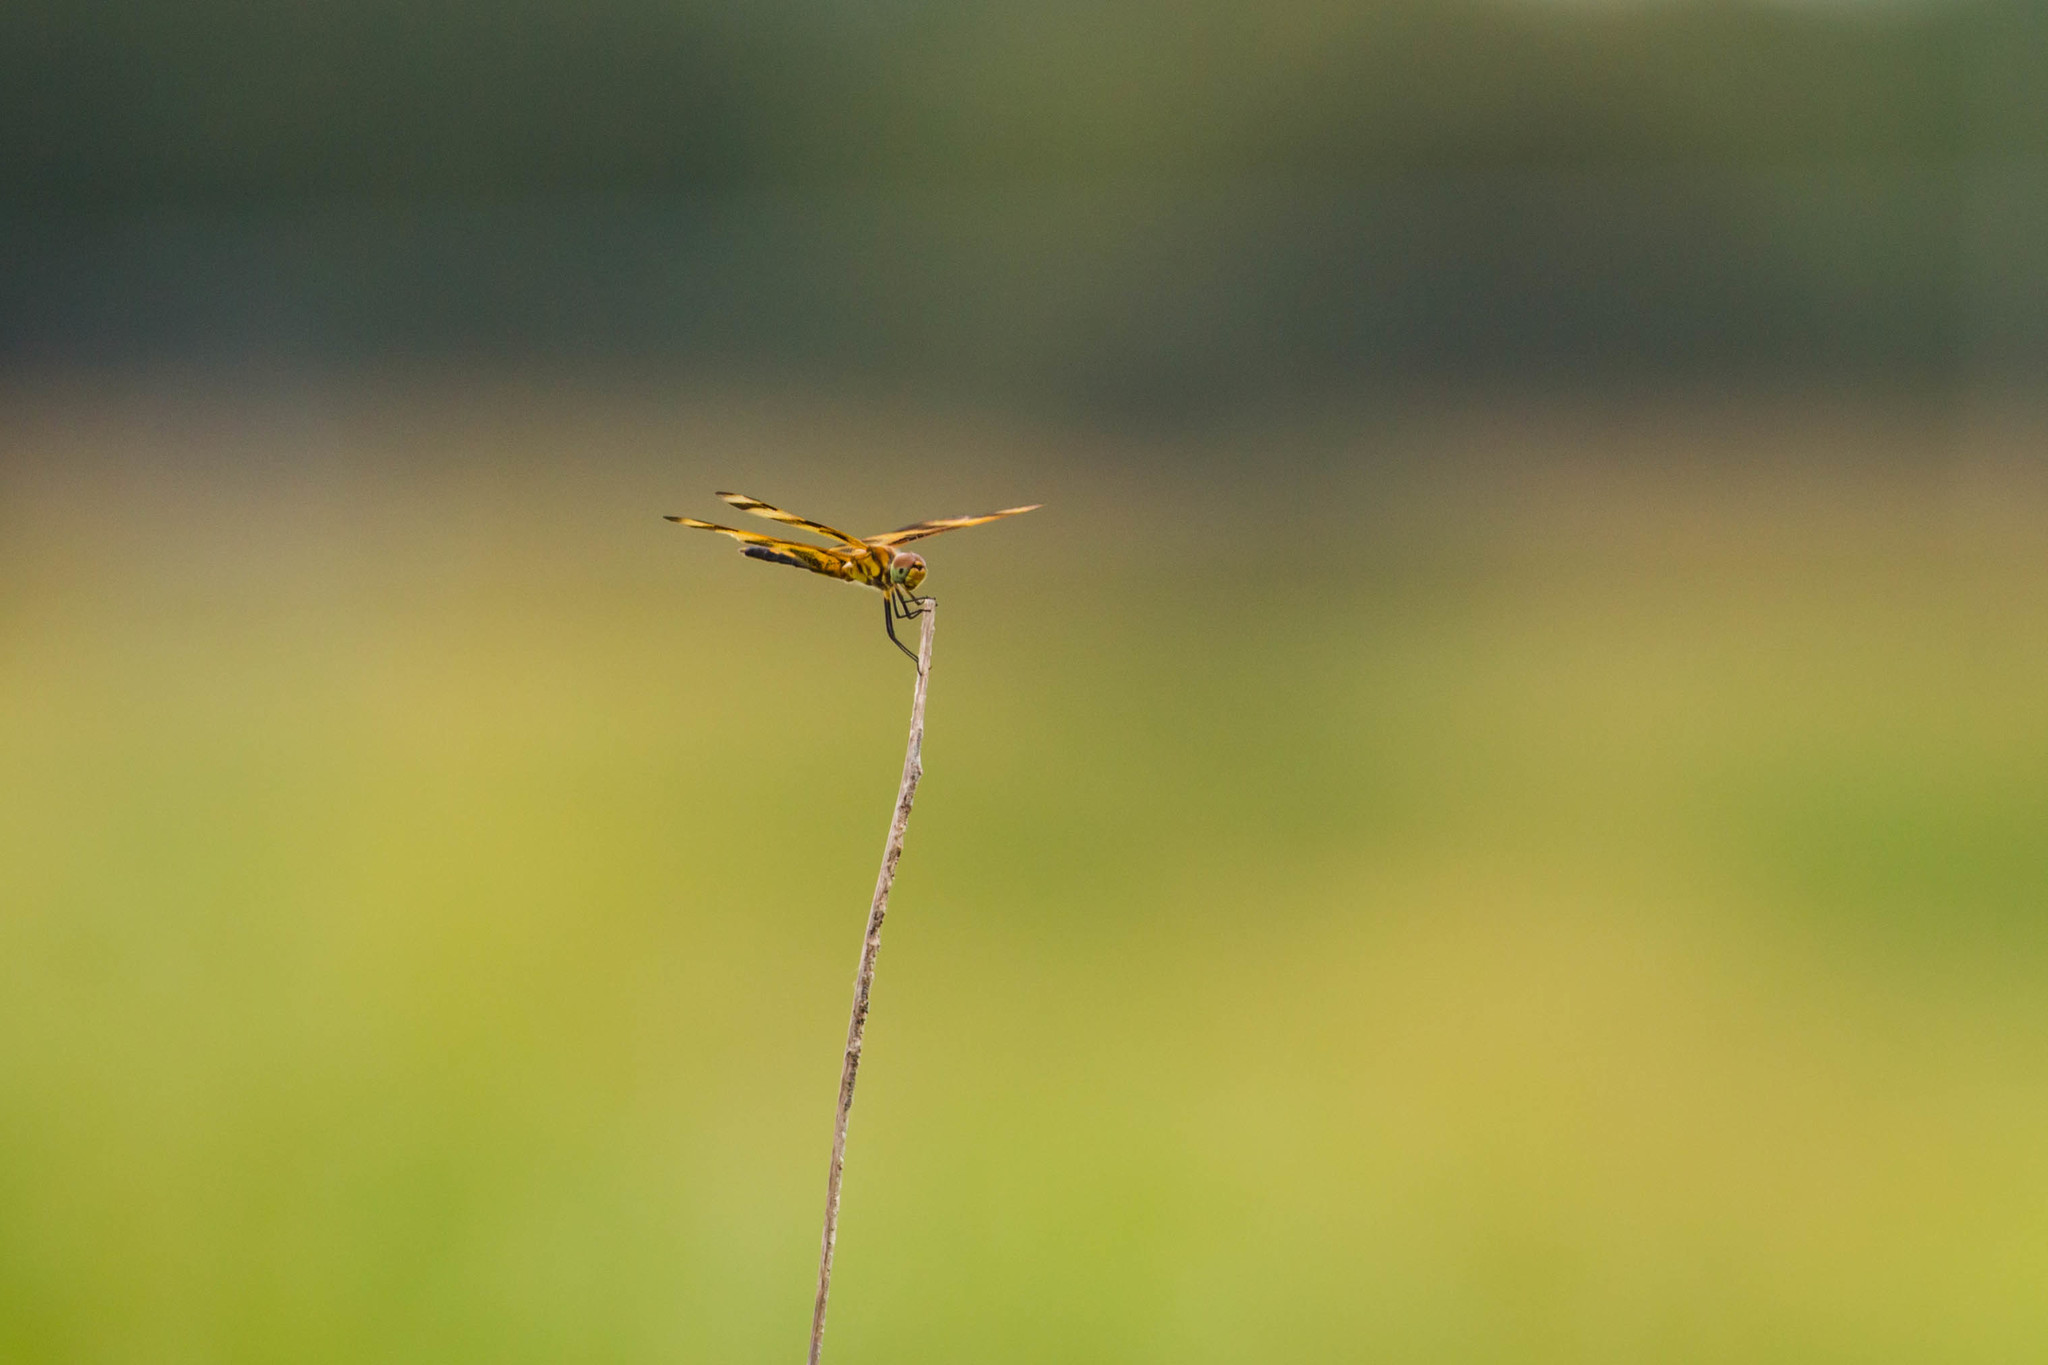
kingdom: Animalia
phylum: Arthropoda
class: Insecta
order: Odonata
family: Libellulidae
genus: Celithemis
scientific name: Celithemis eponina
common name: Halloween pennant
